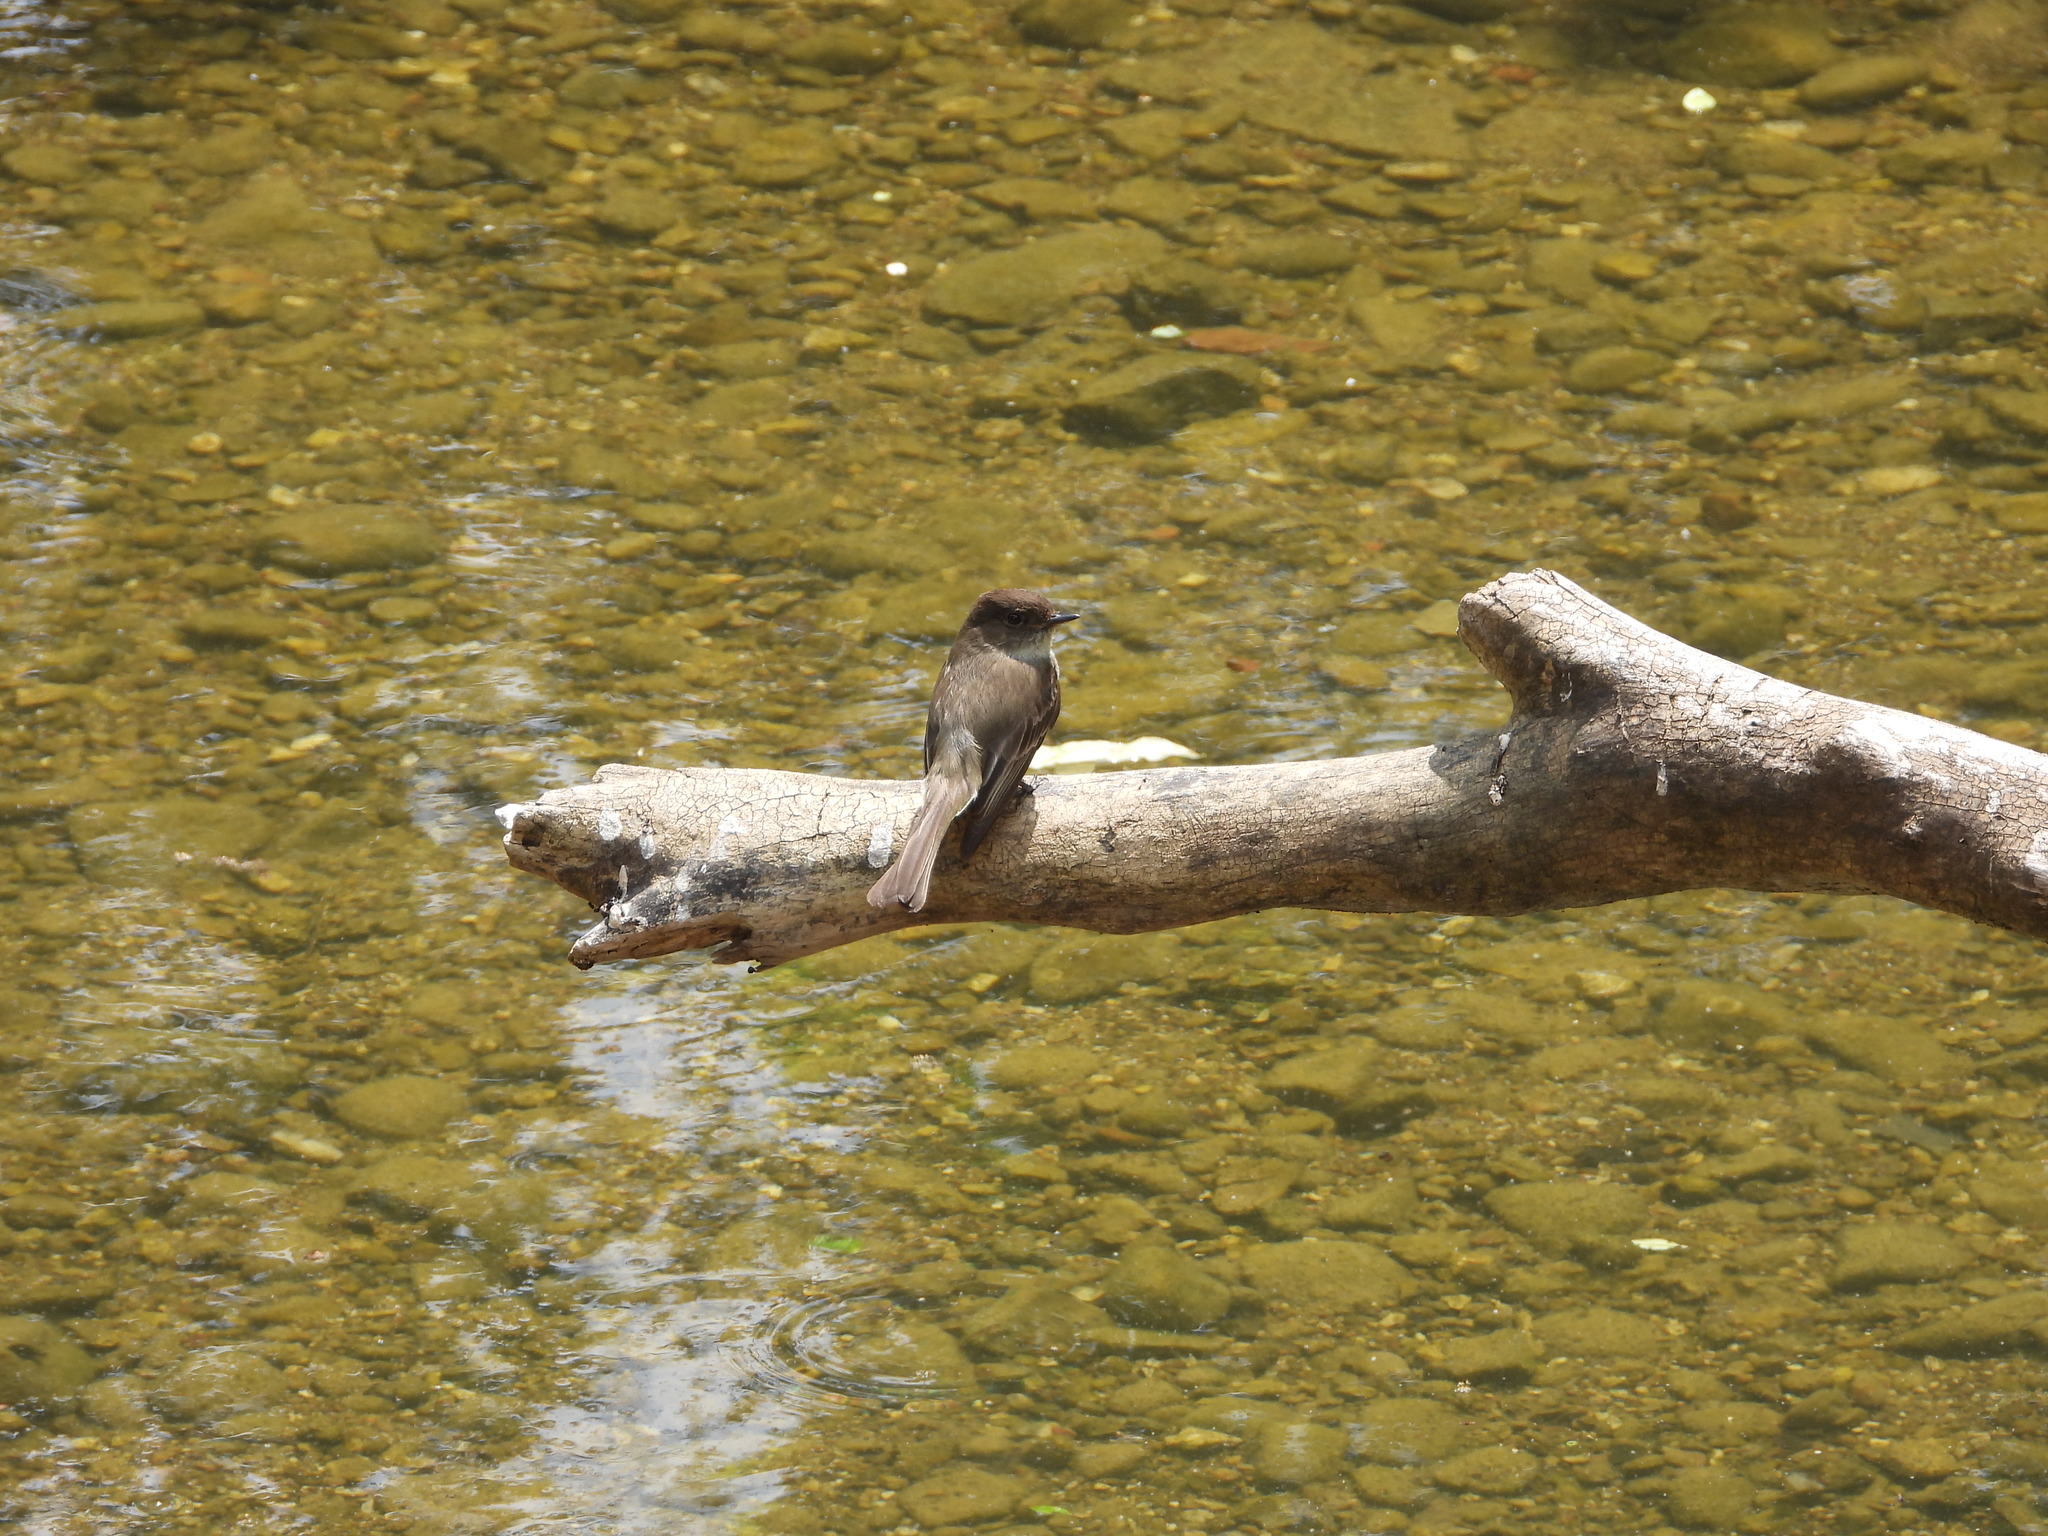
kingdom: Animalia
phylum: Chordata
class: Aves
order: Passeriformes
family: Tyrannidae
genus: Sayornis
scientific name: Sayornis phoebe
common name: Eastern phoebe
